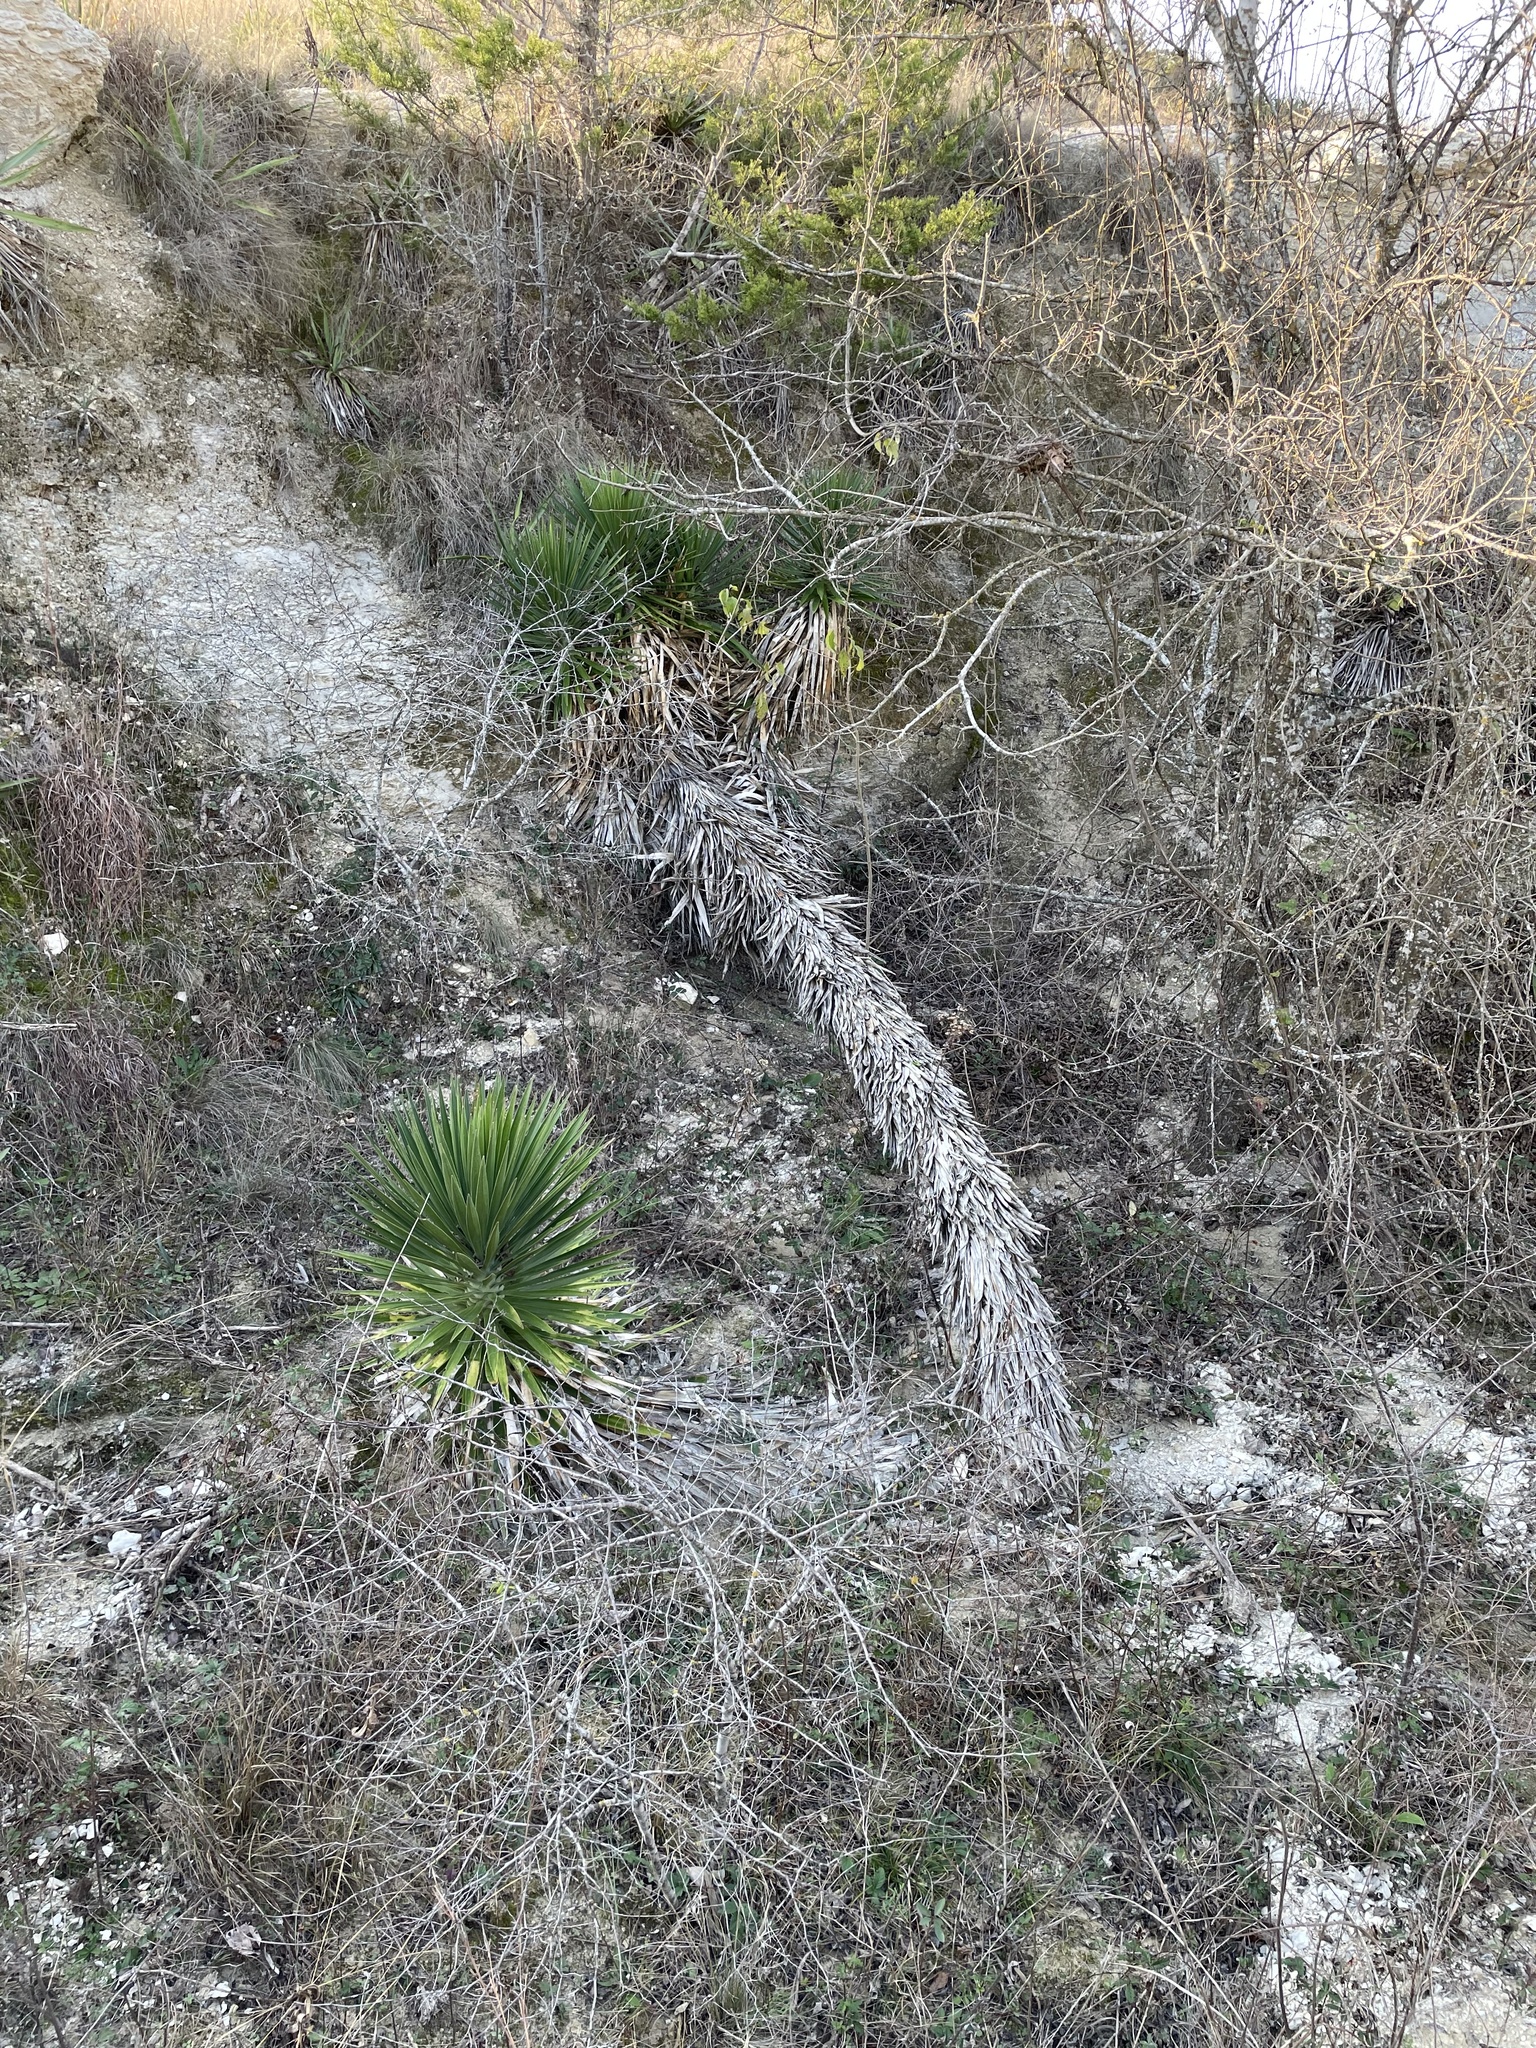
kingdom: Plantae
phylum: Tracheophyta
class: Liliopsida
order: Asparagales
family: Asparagaceae
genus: Yucca
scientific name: Yucca aloifolia
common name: Aloe yucca
